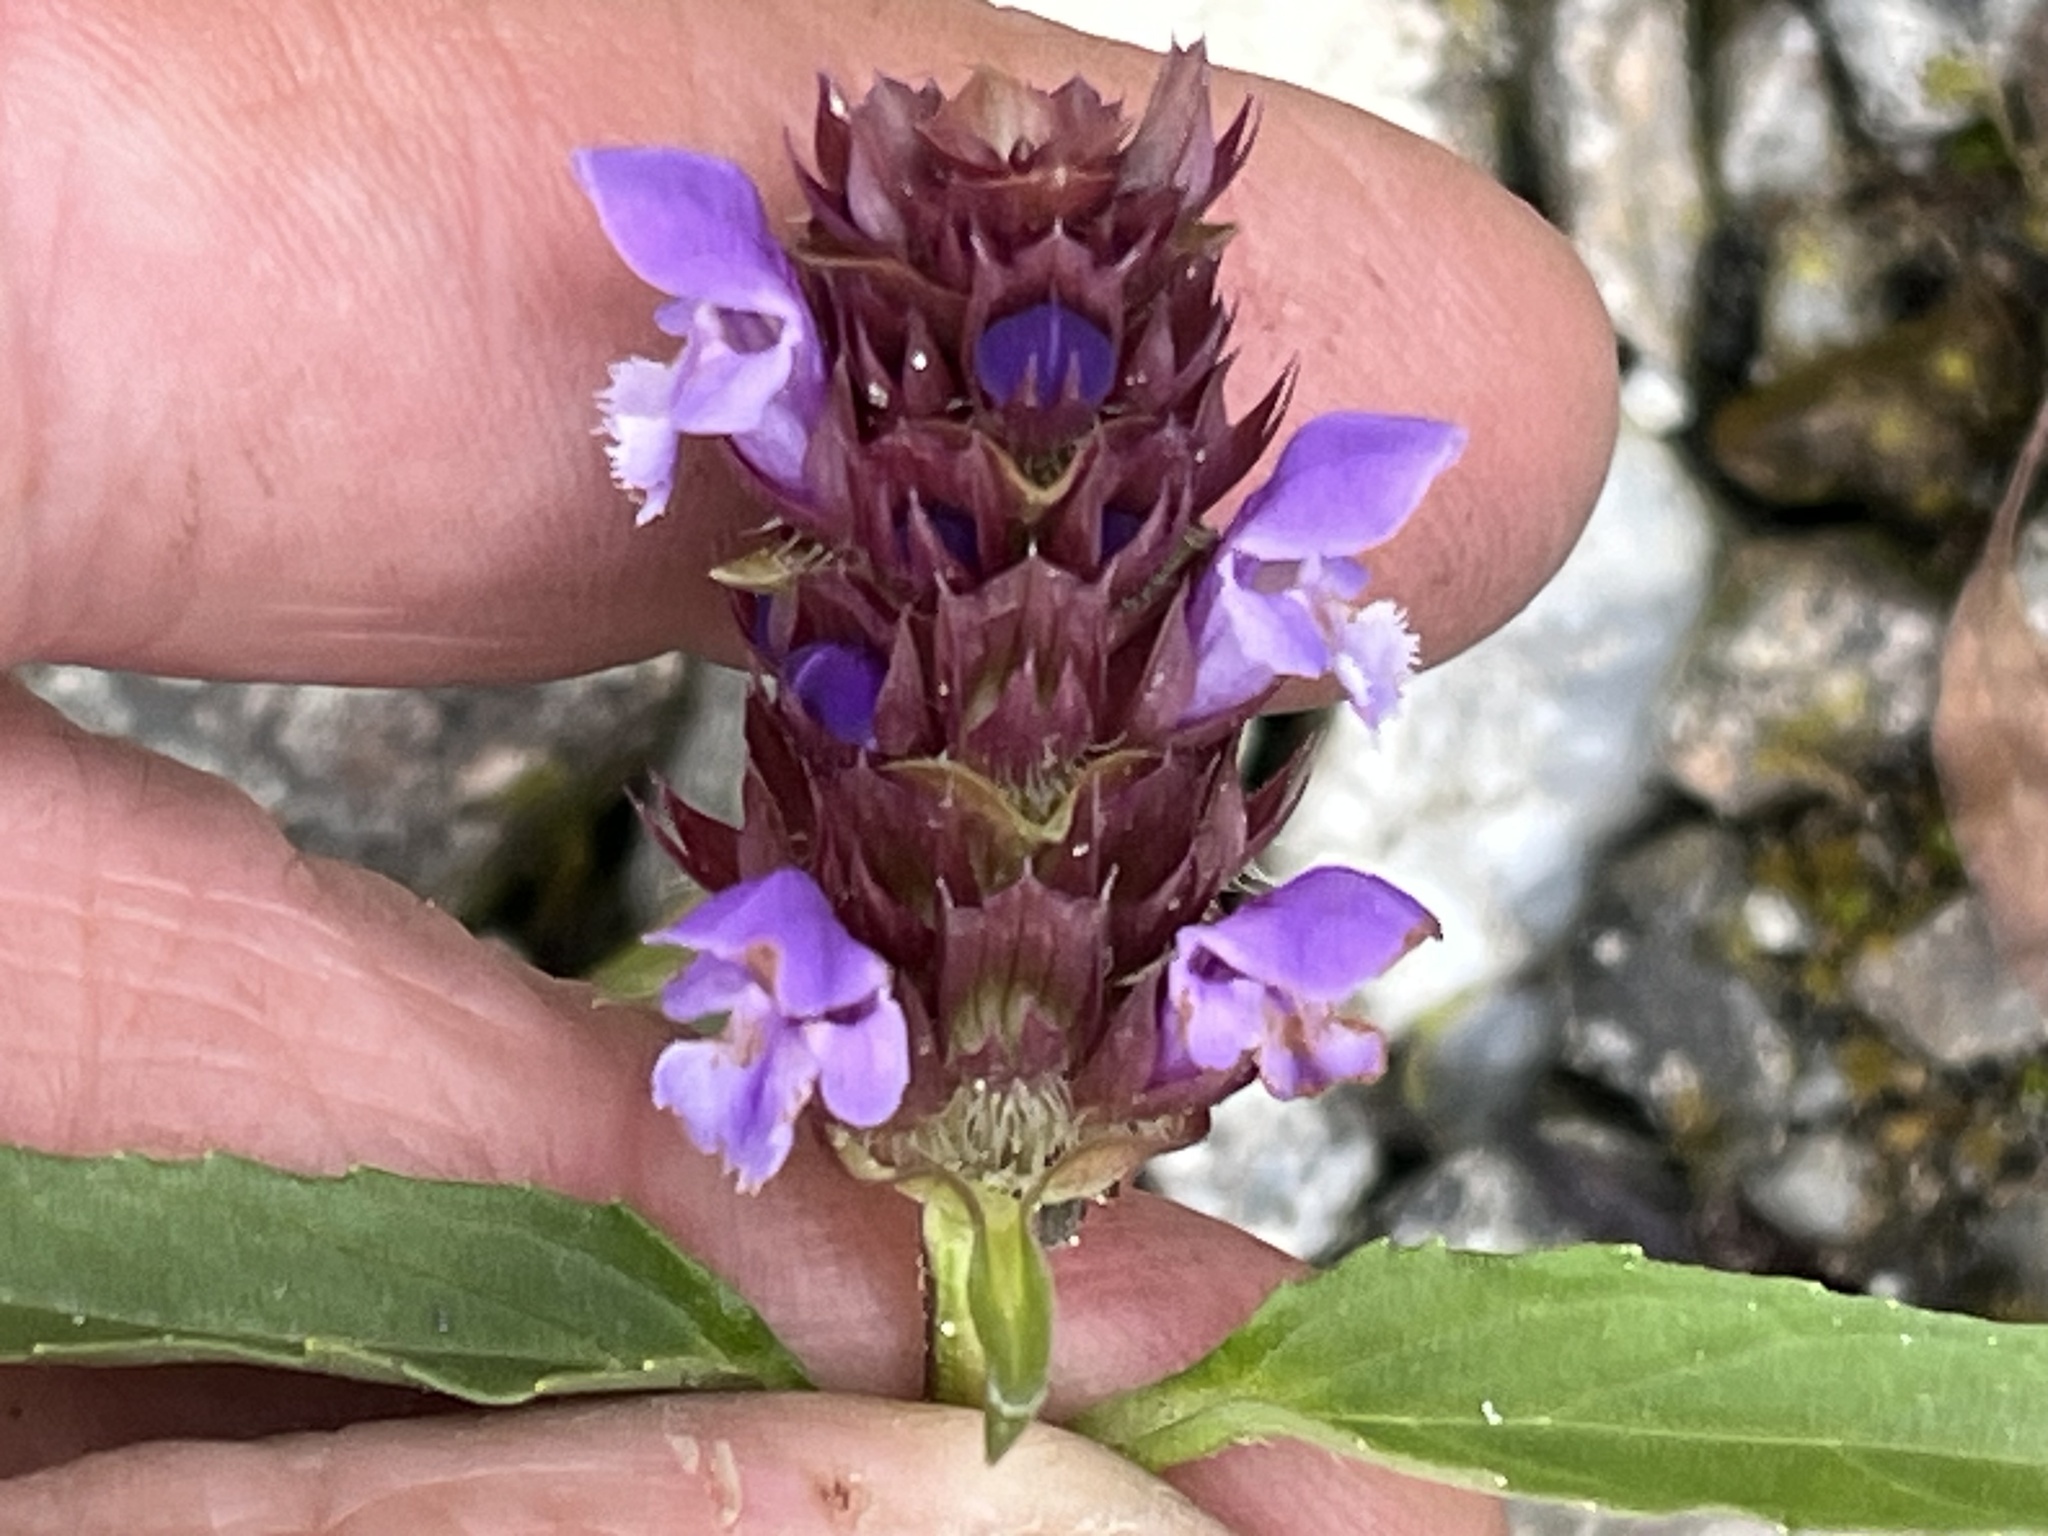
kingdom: Plantae
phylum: Tracheophyta
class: Magnoliopsida
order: Lamiales
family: Lamiaceae
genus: Prunella
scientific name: Prunella vulgaris
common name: Heal-all
